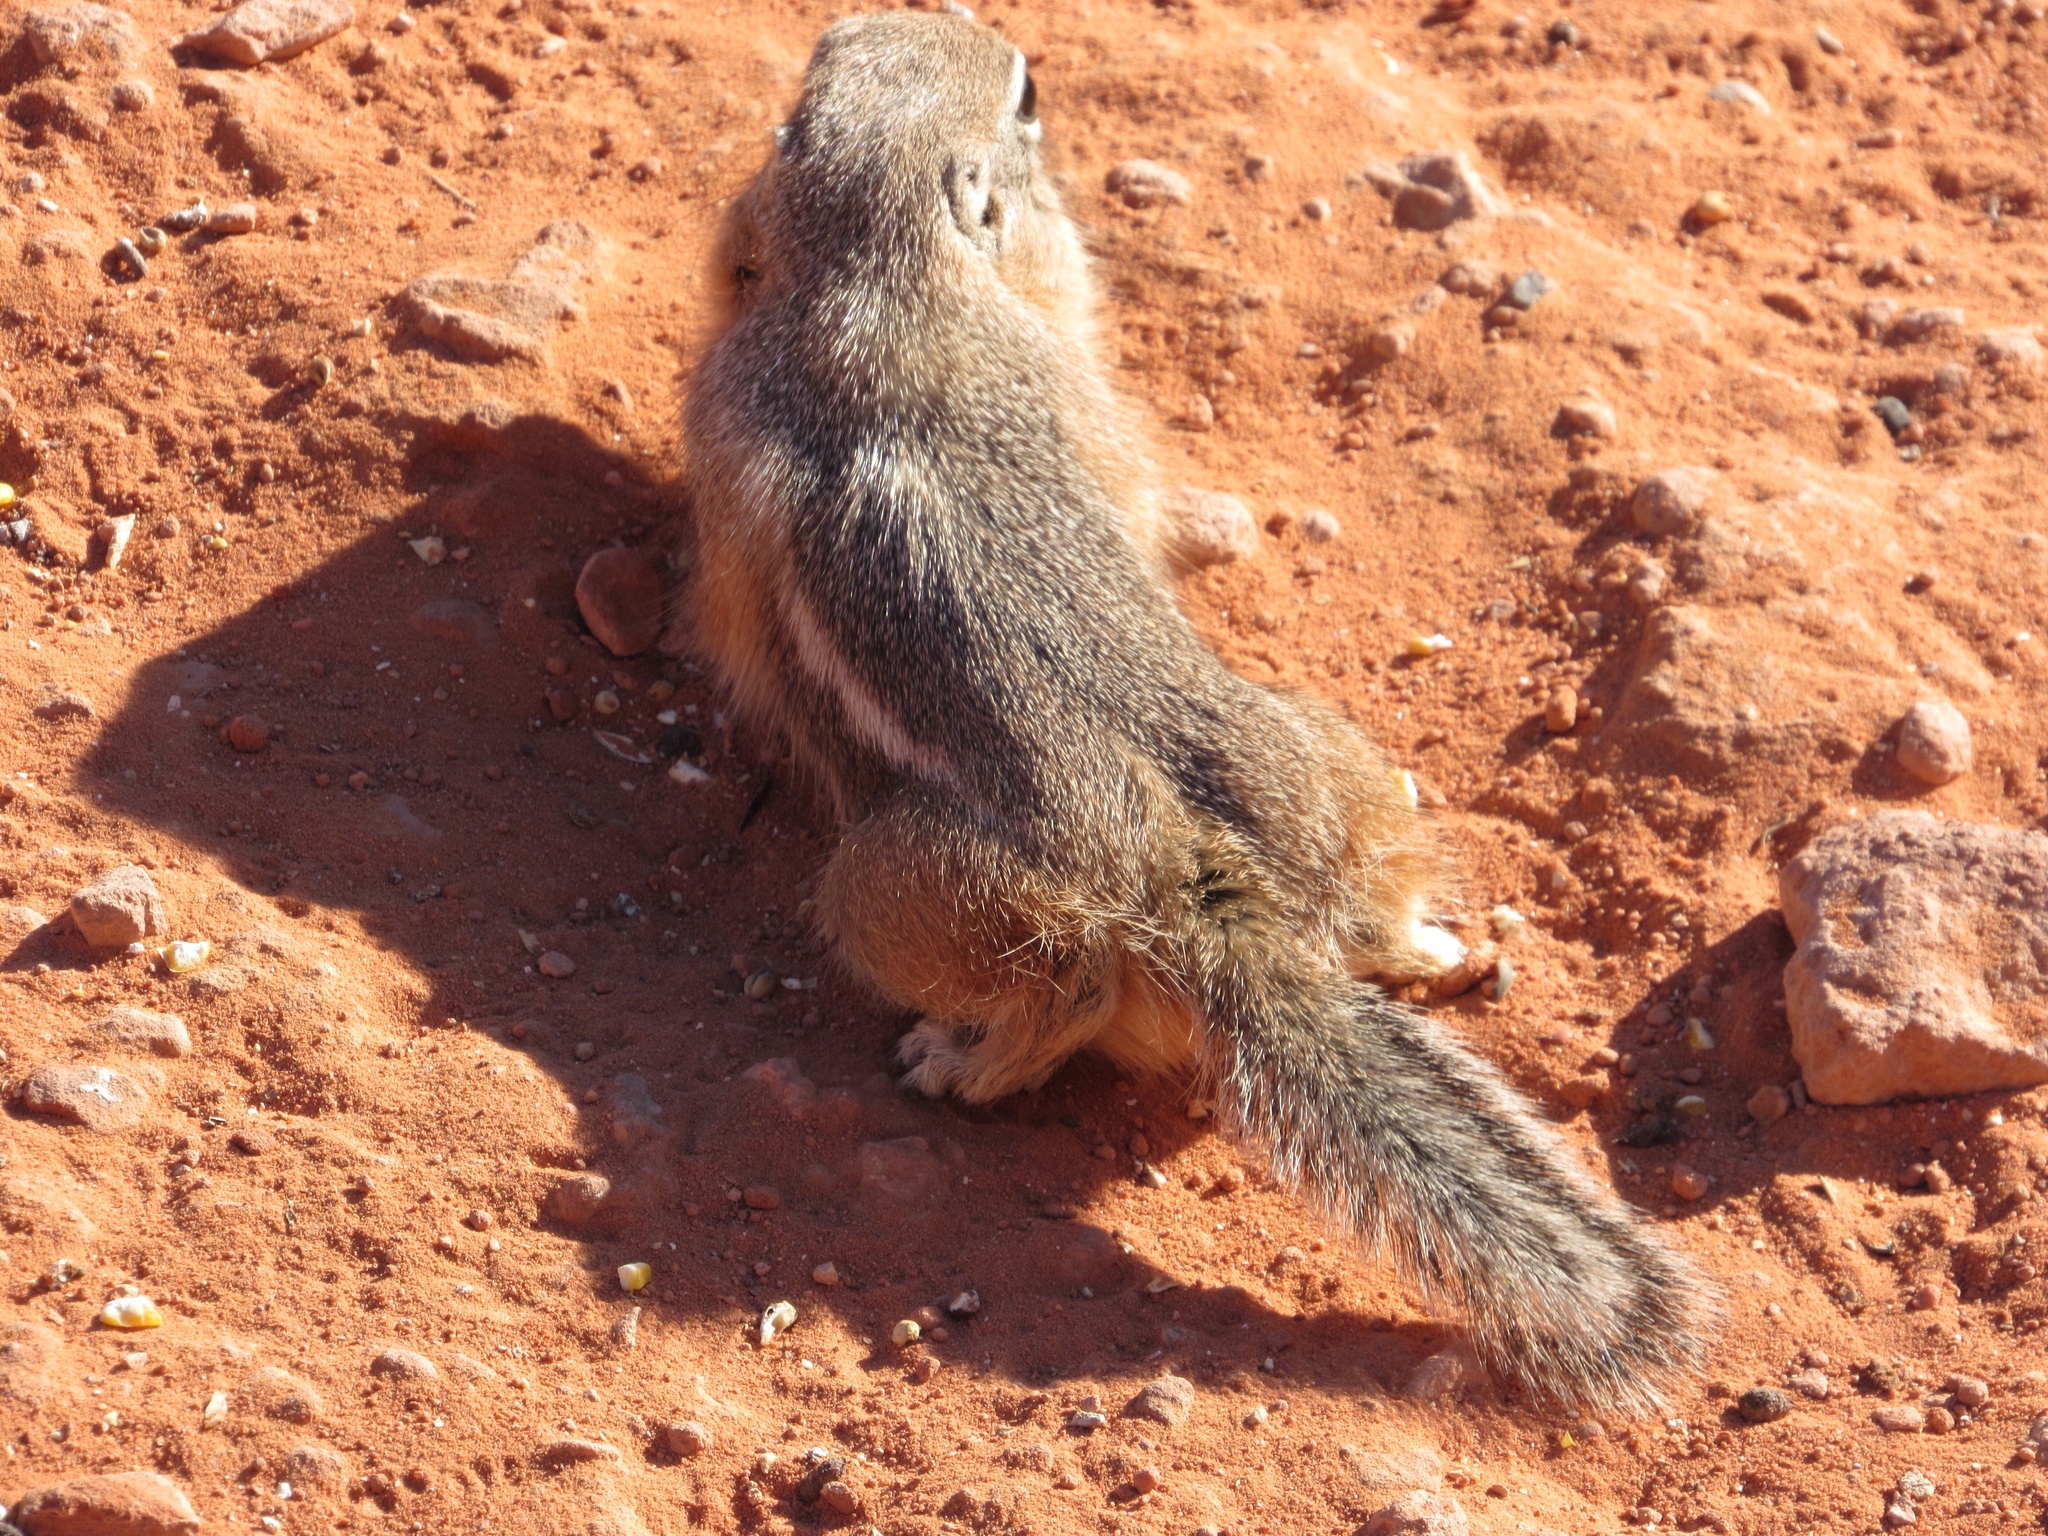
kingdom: Animalia
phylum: Chordata
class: Mammalia
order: Rodentia
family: Sciuridae
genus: Ammospermophilus
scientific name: Ammospermophilus leucurus
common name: White-tailed antelope squirrel
